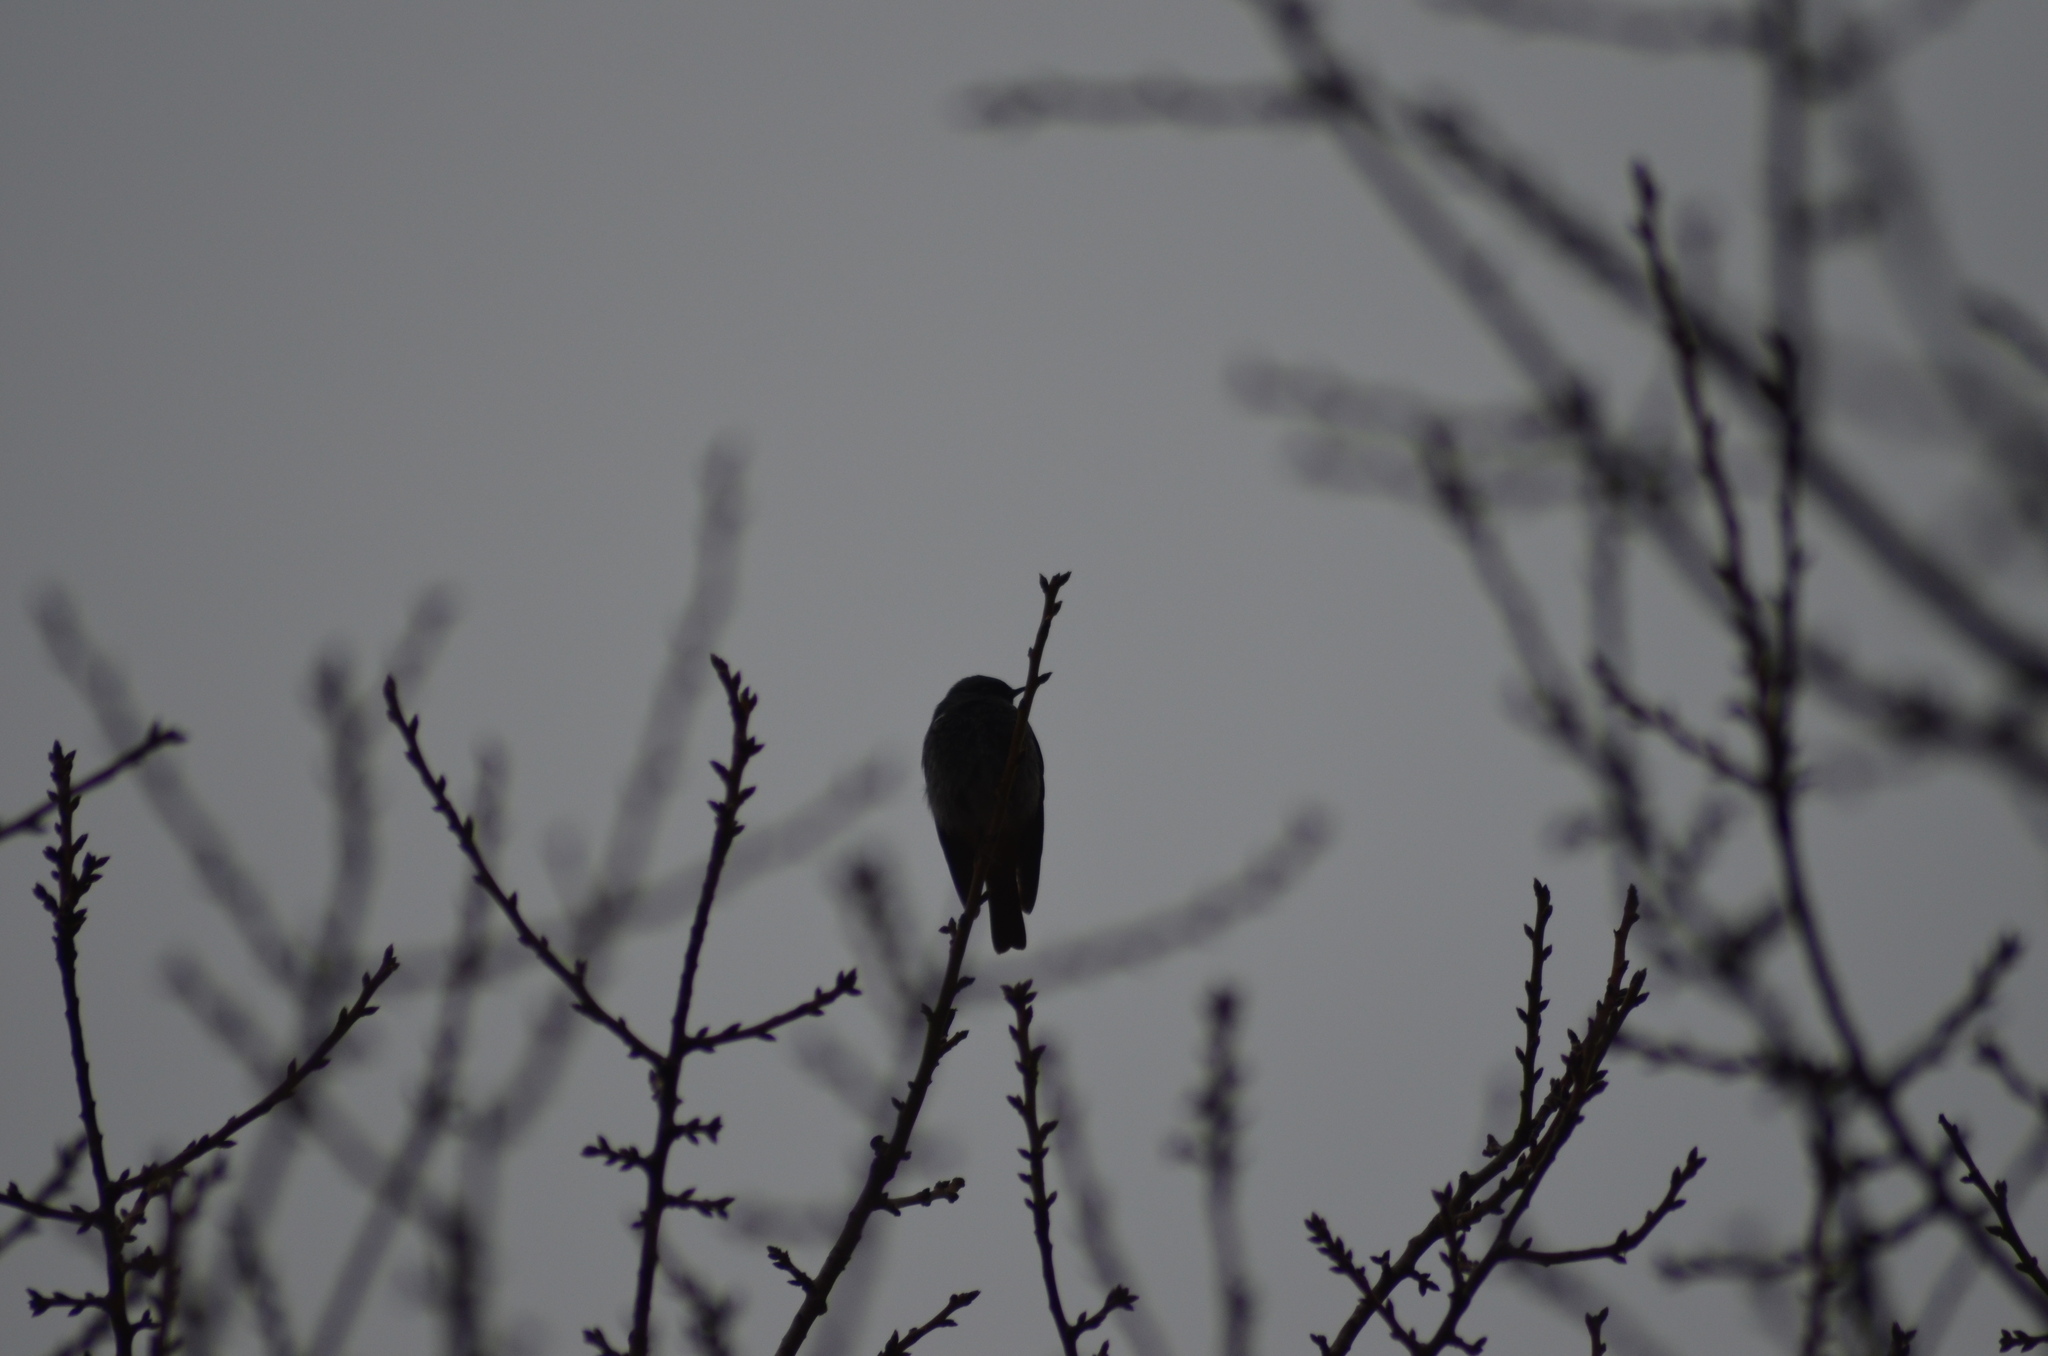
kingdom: Animalia
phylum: Chordata
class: Aves
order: Passeriformes
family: Muscicapidae
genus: Phoenicurus
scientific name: Phoenicurus ochruros
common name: Black redstart
